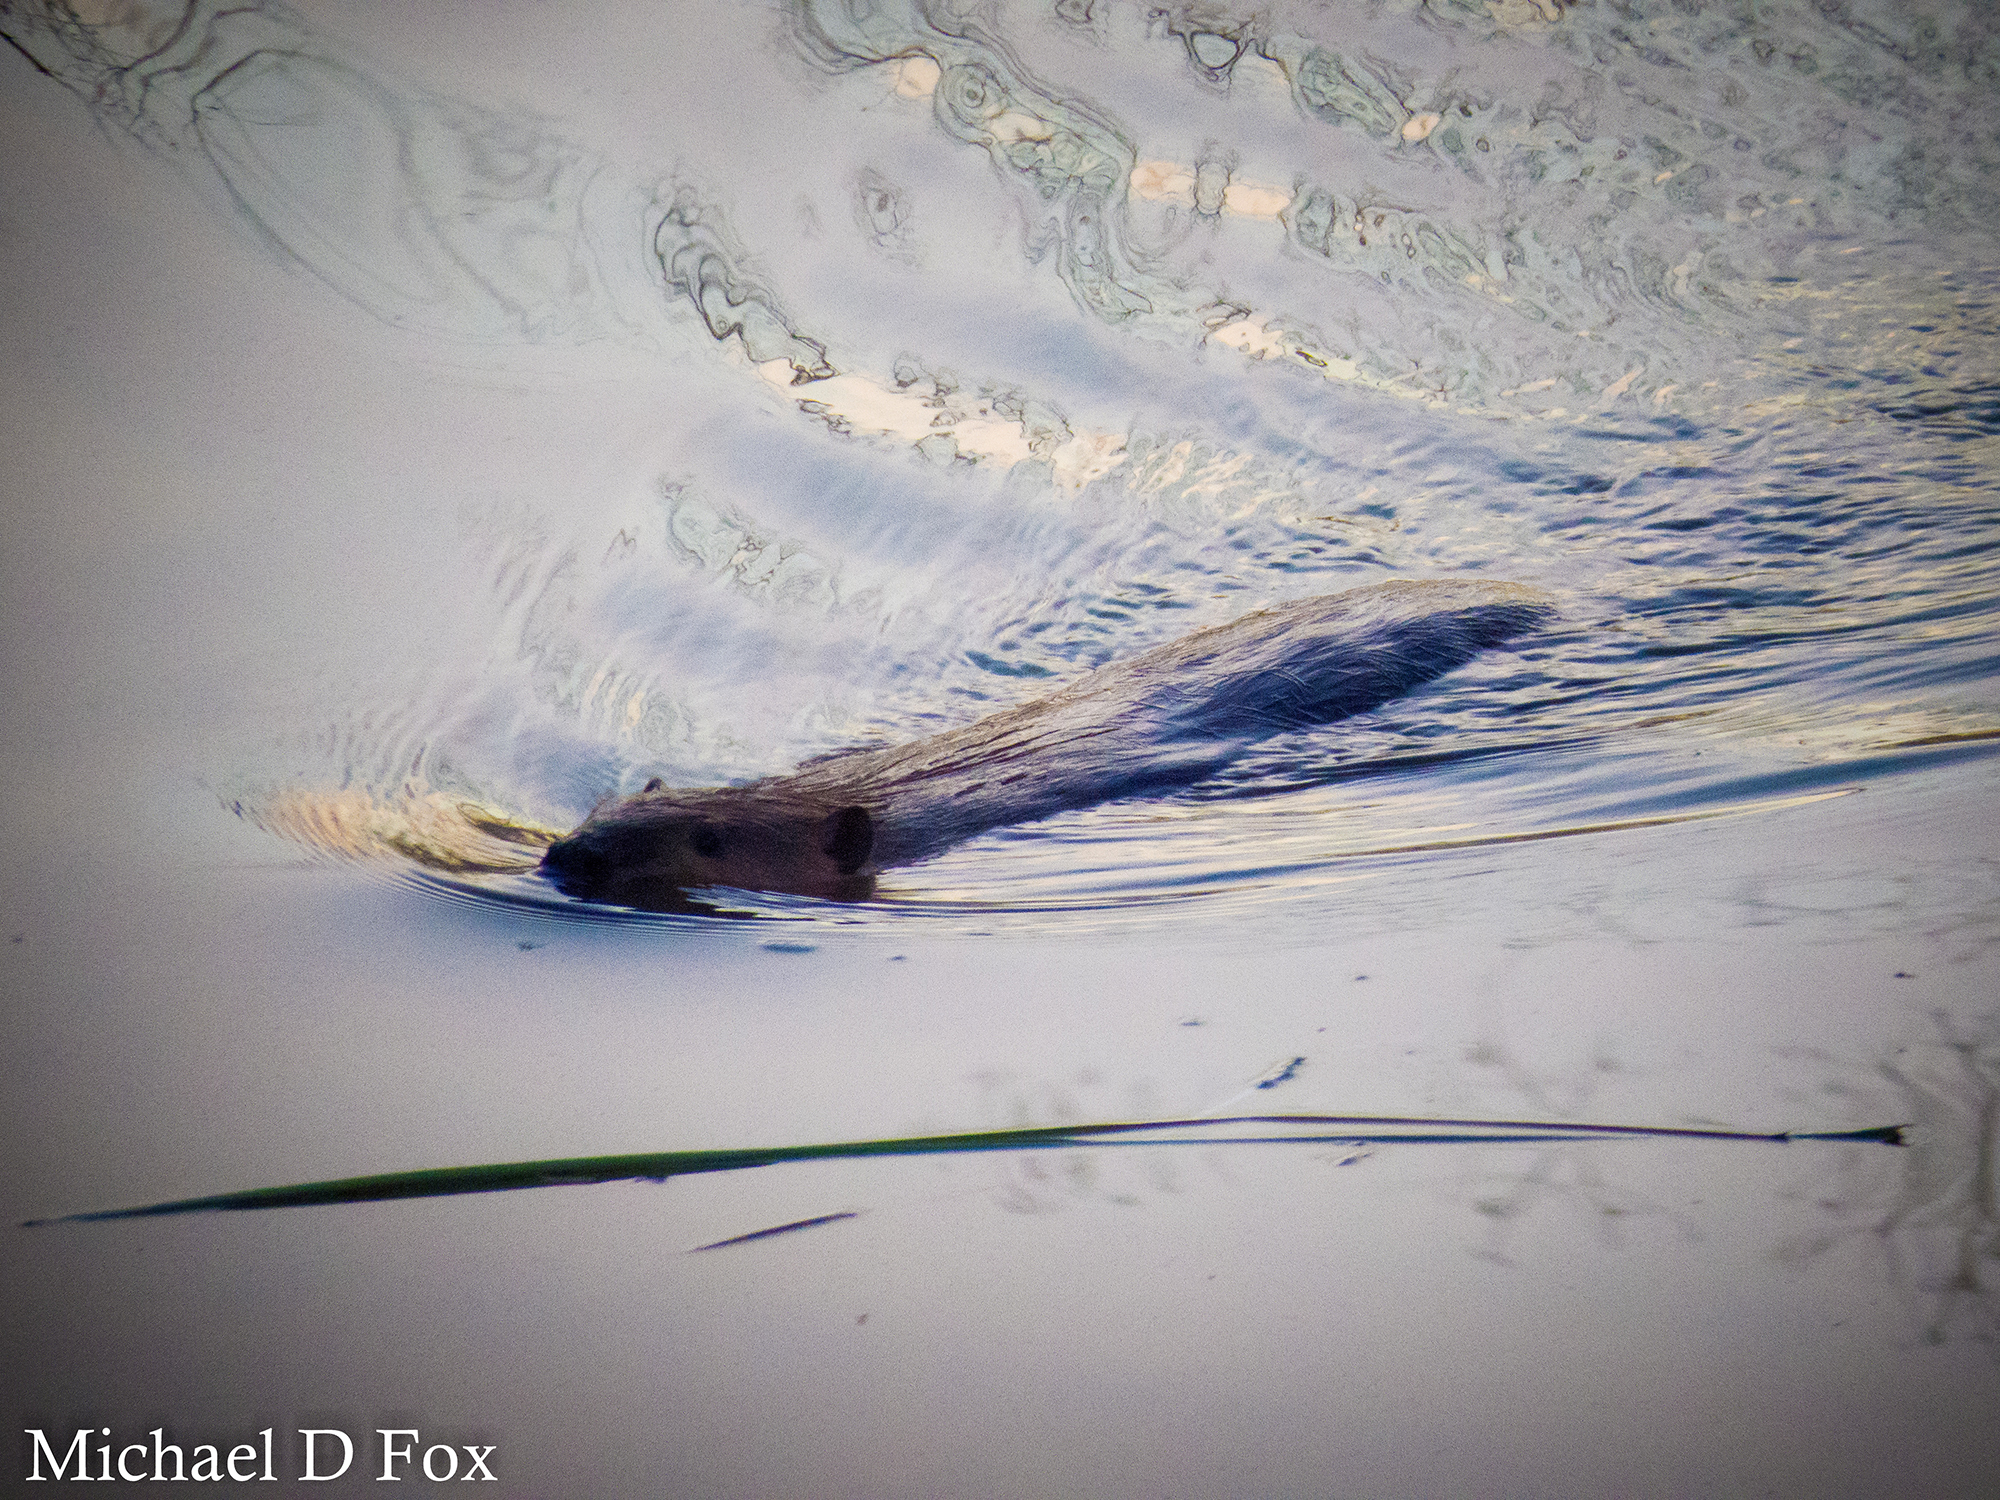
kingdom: Animalia
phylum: Chordata
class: Mammalia
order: Rodentia
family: Castoridae
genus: Castor
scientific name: Castor canadensis
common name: American beaver
